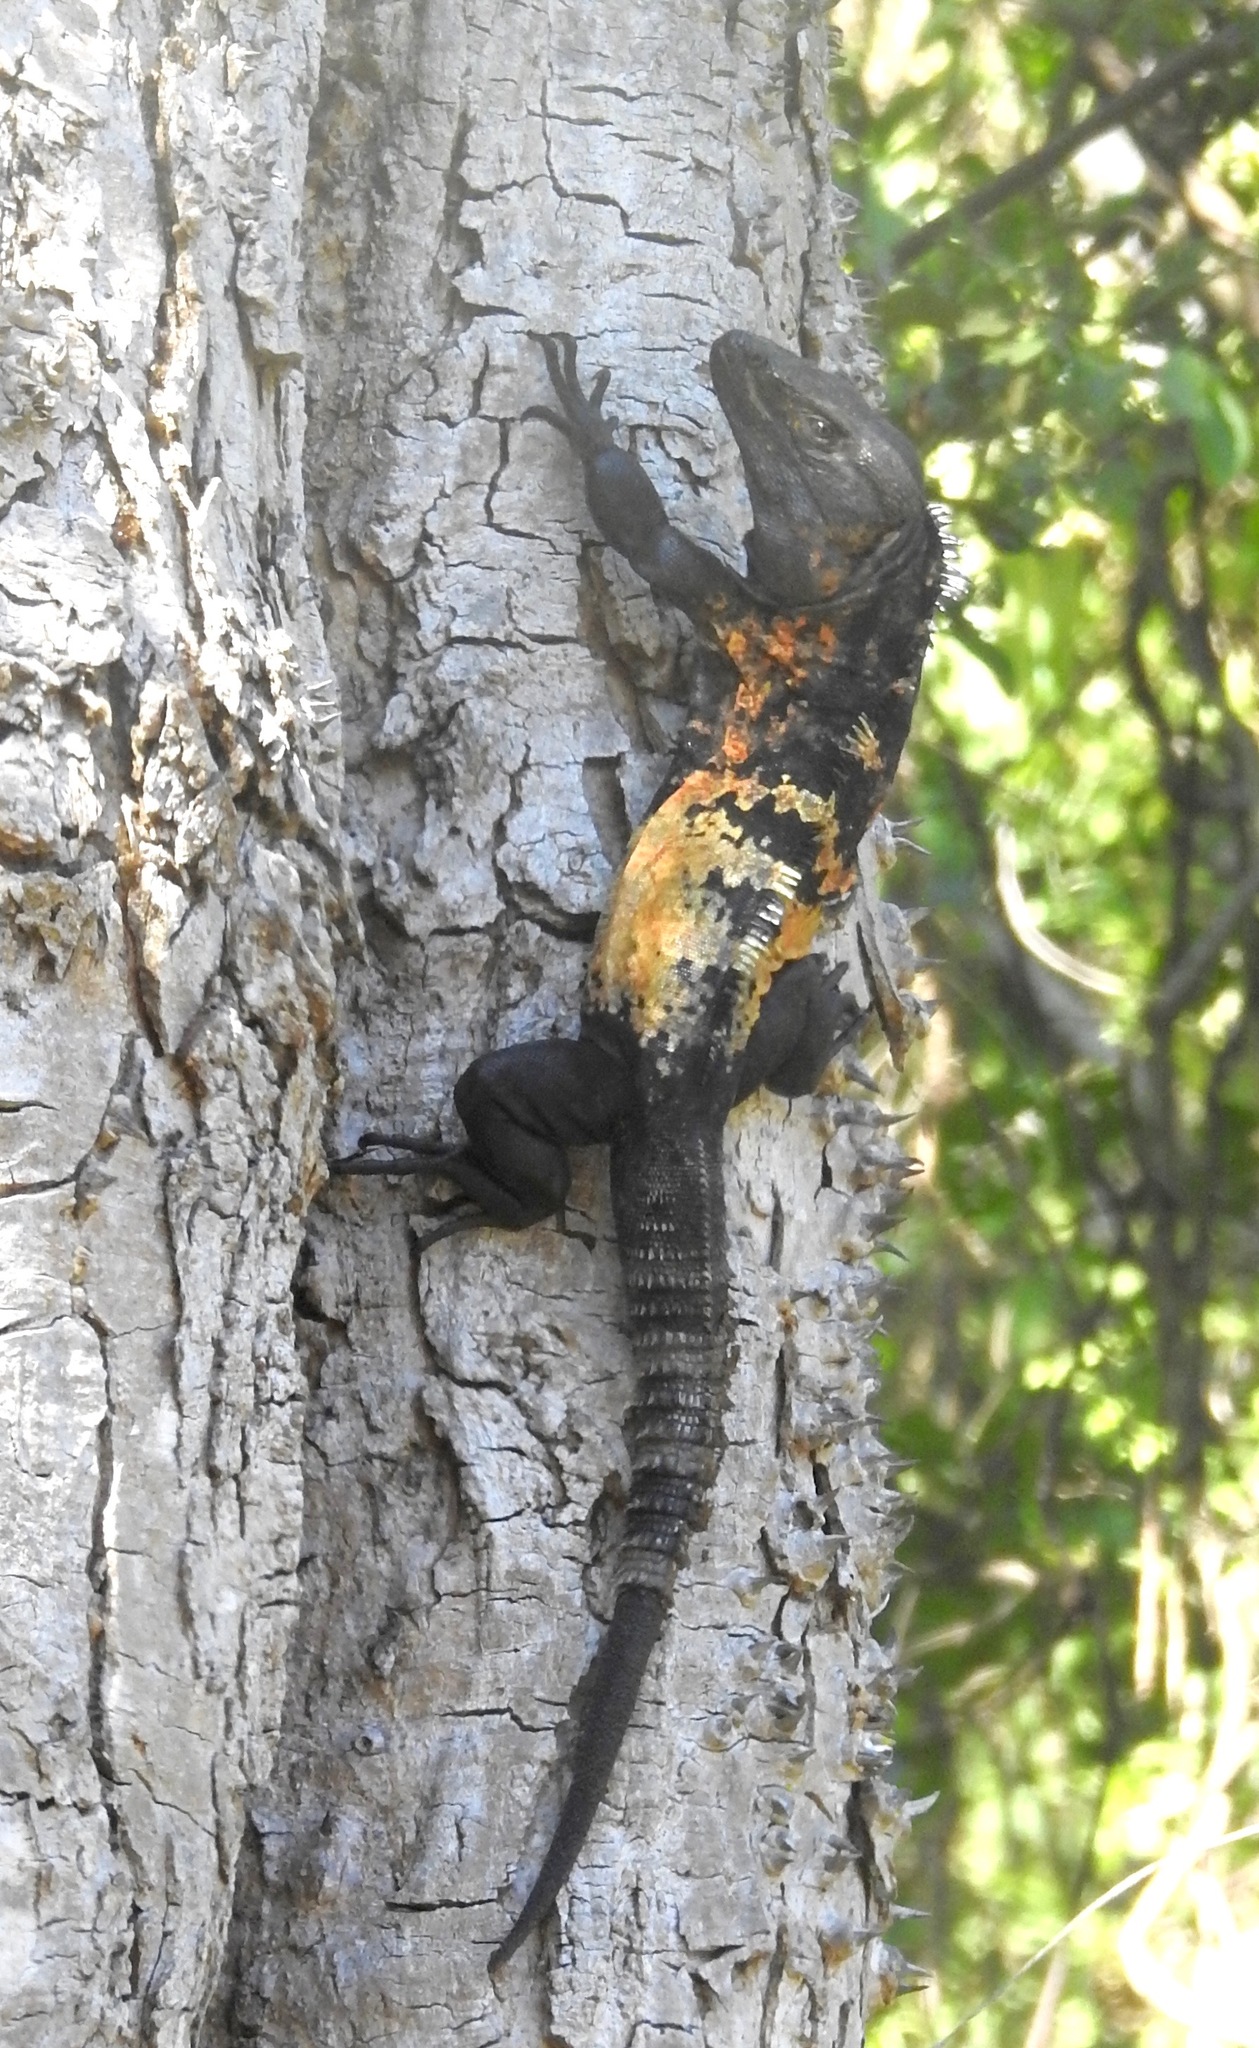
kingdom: Animalia
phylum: Chordata
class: Squamata
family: Iguanidae
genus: Ctenosaura
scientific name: Ctenosaura pectinata
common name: Guerreran spiny-tailed iguana
